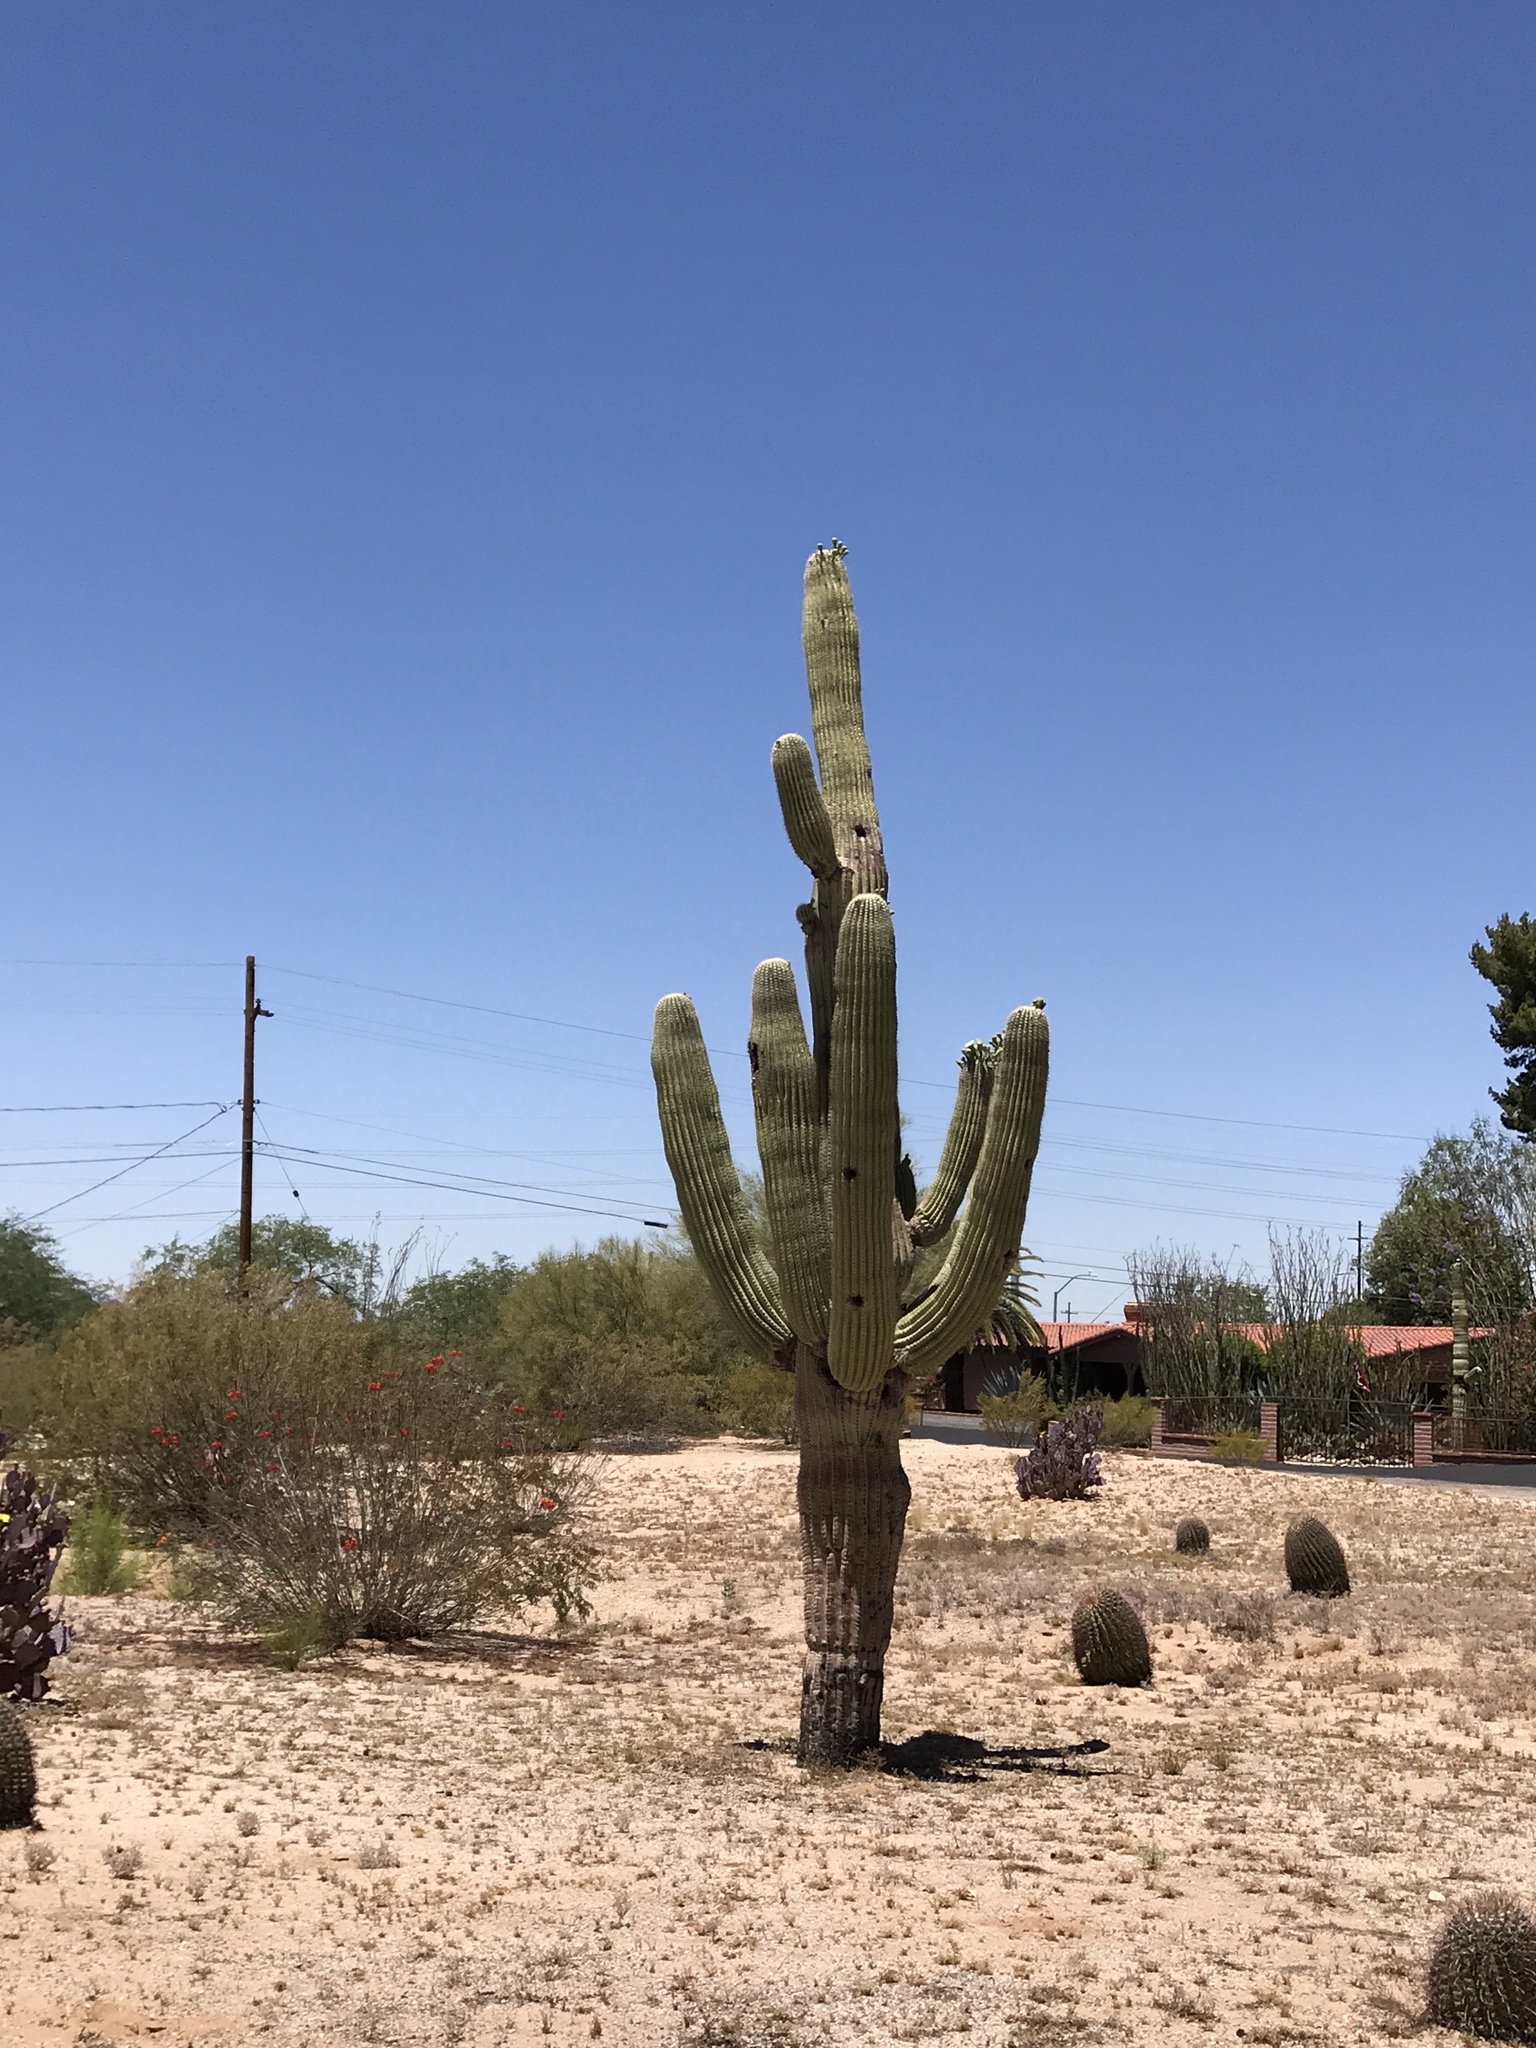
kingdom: Plantae
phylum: Tracheophyta
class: Magnoliopsida
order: Caryophyllales
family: Cactaceae
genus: Carnegiea
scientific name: Carnegiea gigantea
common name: Saguaro
